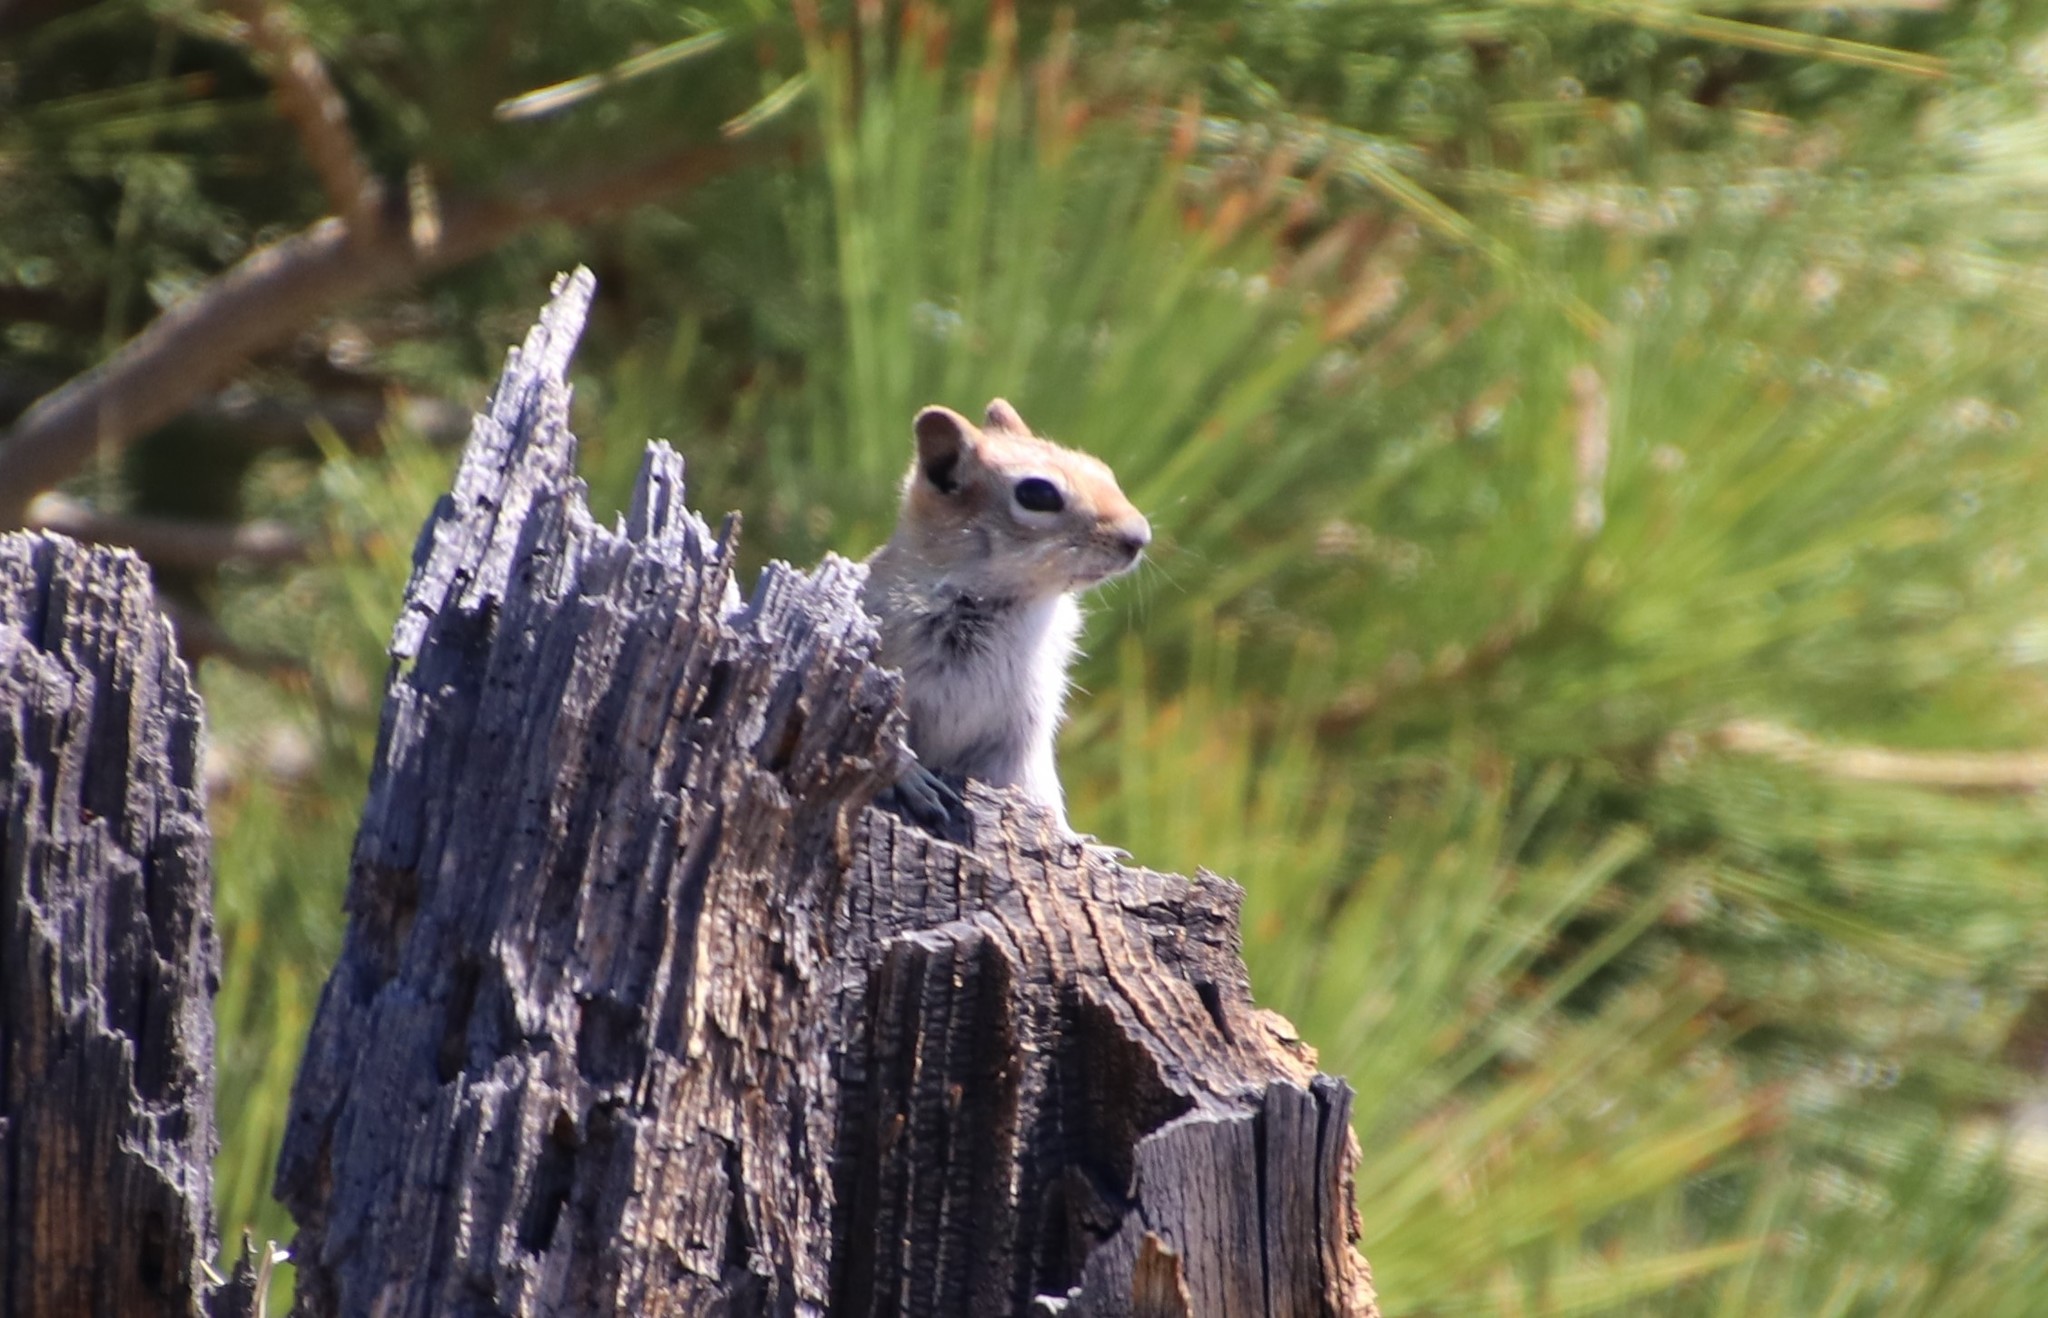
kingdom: Animalia
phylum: Chordata
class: Mammalia
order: Rodentia
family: Sciuridae
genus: Callospermophilus
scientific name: Callospermophilus lateralis
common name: Golden-mantled ground squirrel
